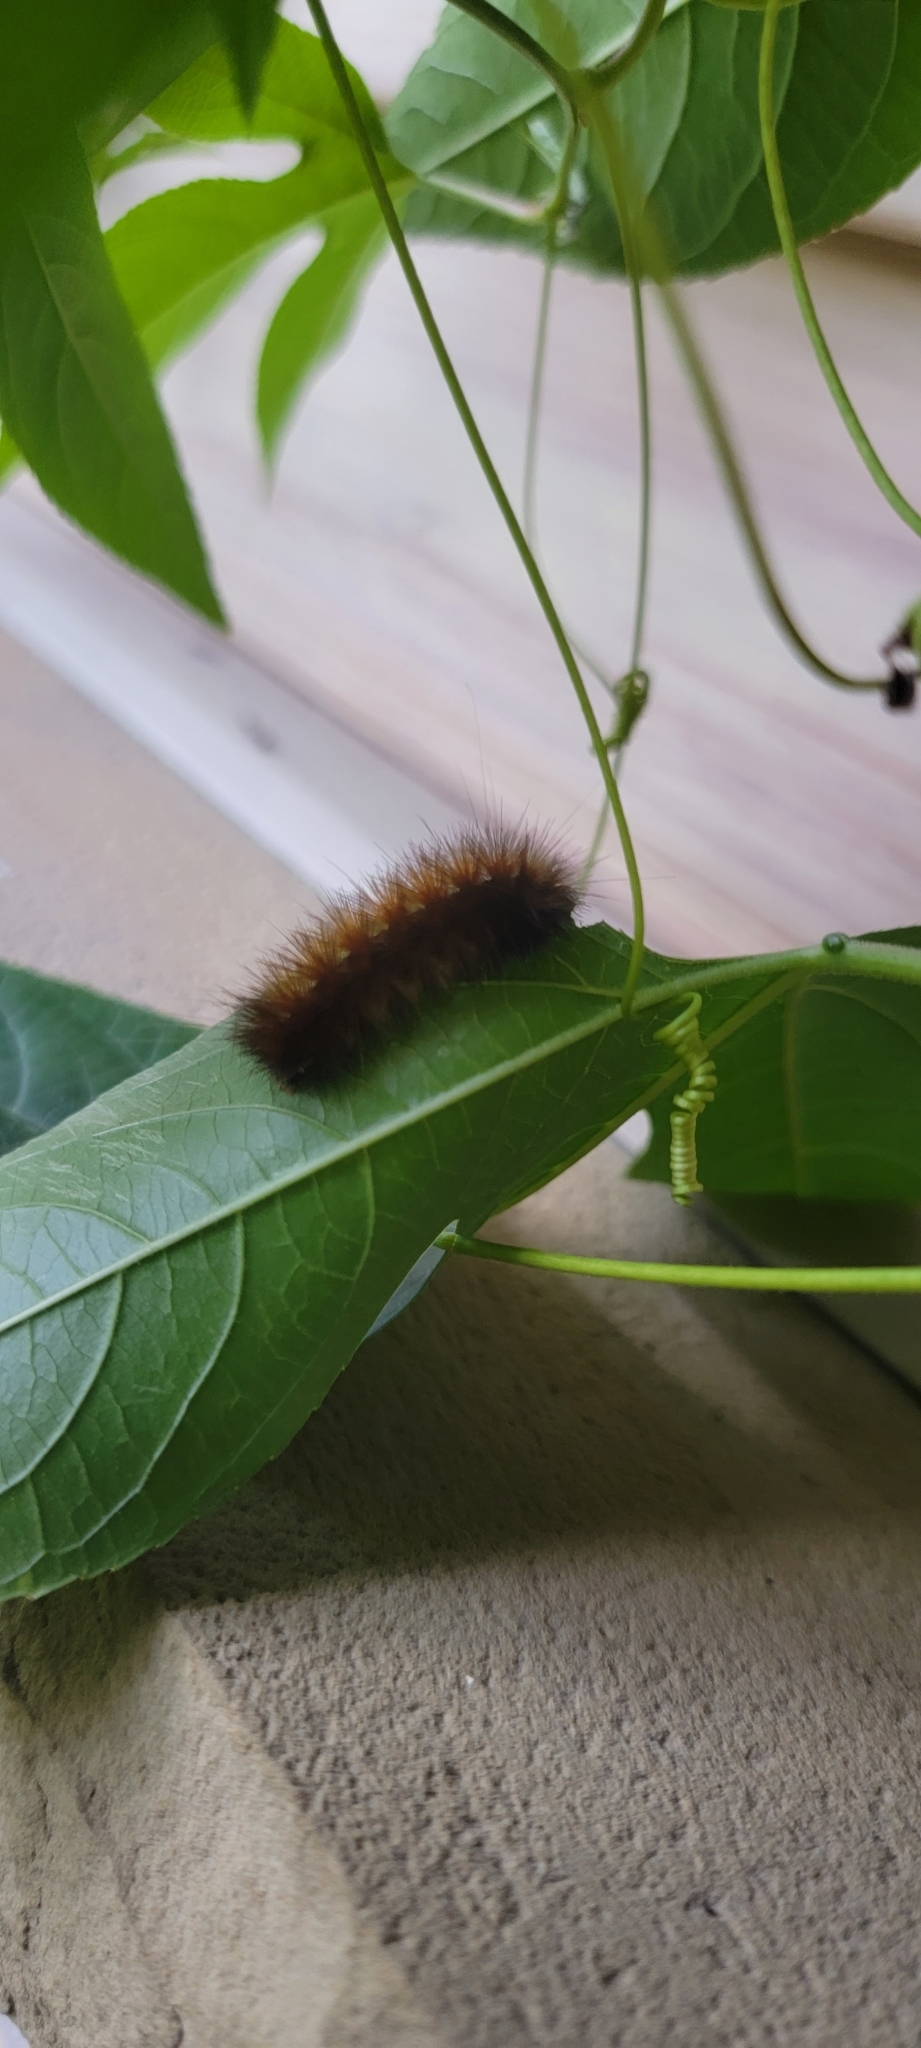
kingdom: Animalia
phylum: Arthropoda
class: Insecta
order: Lepidoptera
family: Erebidae
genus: Pyrrharctia
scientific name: Pyrrharctia isabella
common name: Isabella tiger moth
